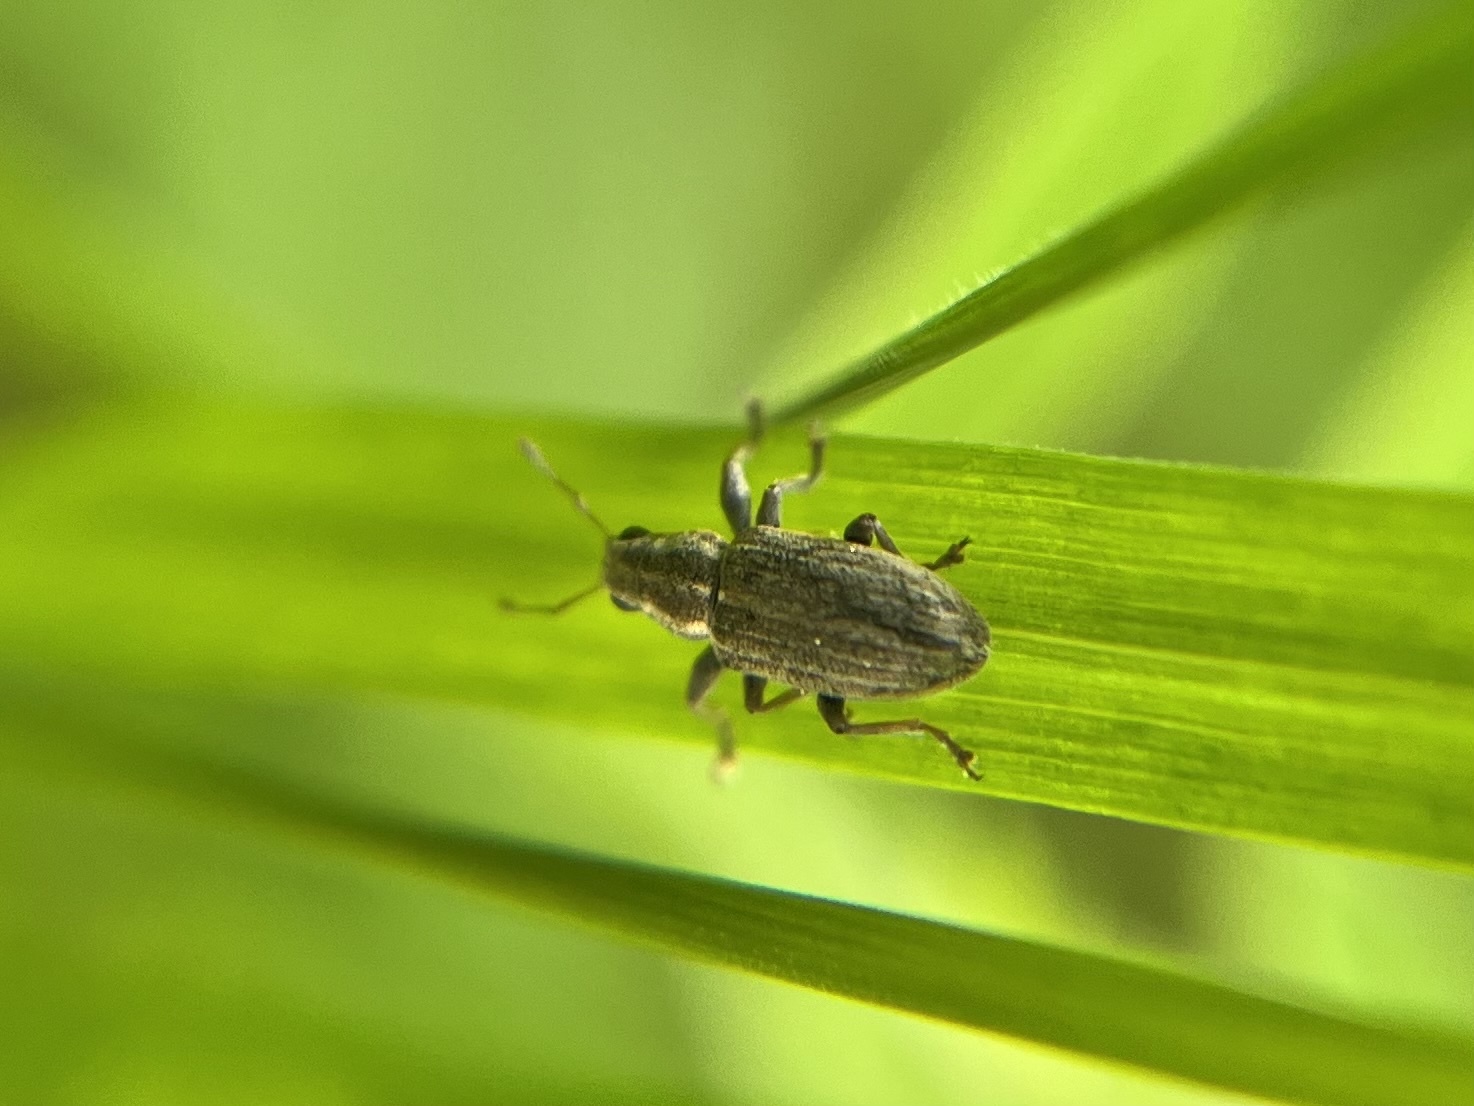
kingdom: Animalia
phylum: Arthropoda
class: Insecta
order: Coleoptera
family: Curculionidae
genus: Sitona
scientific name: Sitona lineatus
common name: Weevil
